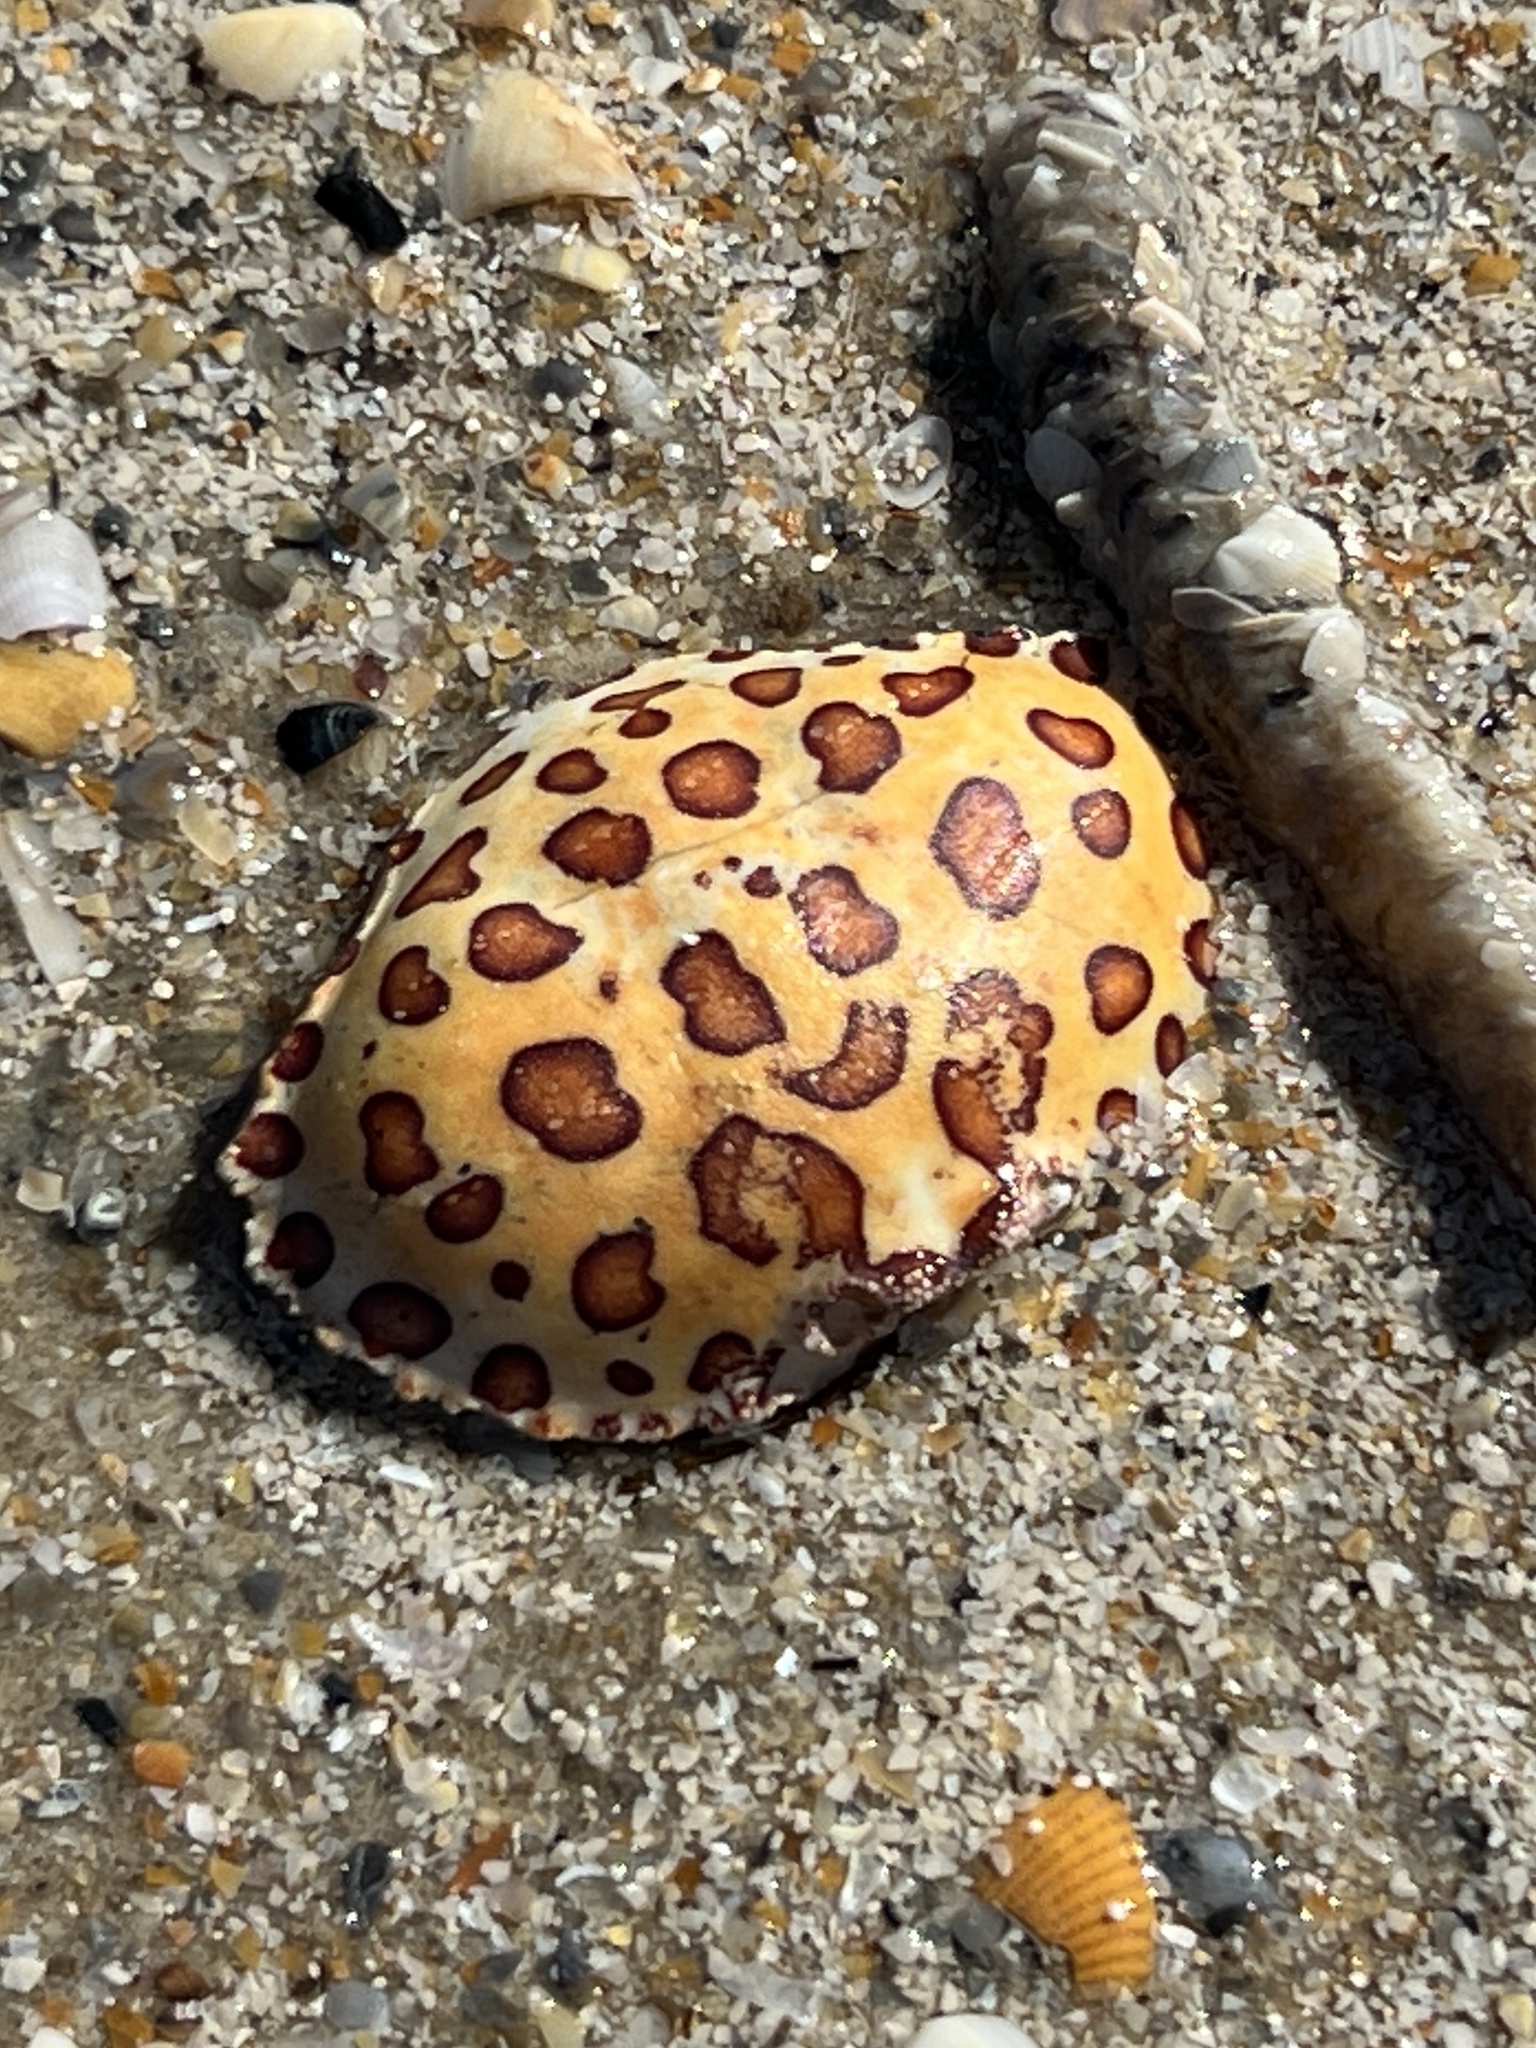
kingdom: Animalia
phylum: Arthropoda
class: Malacostraca
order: Decapoda
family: Aethridae
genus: Hepatus
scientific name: Hepatus epheliticus
